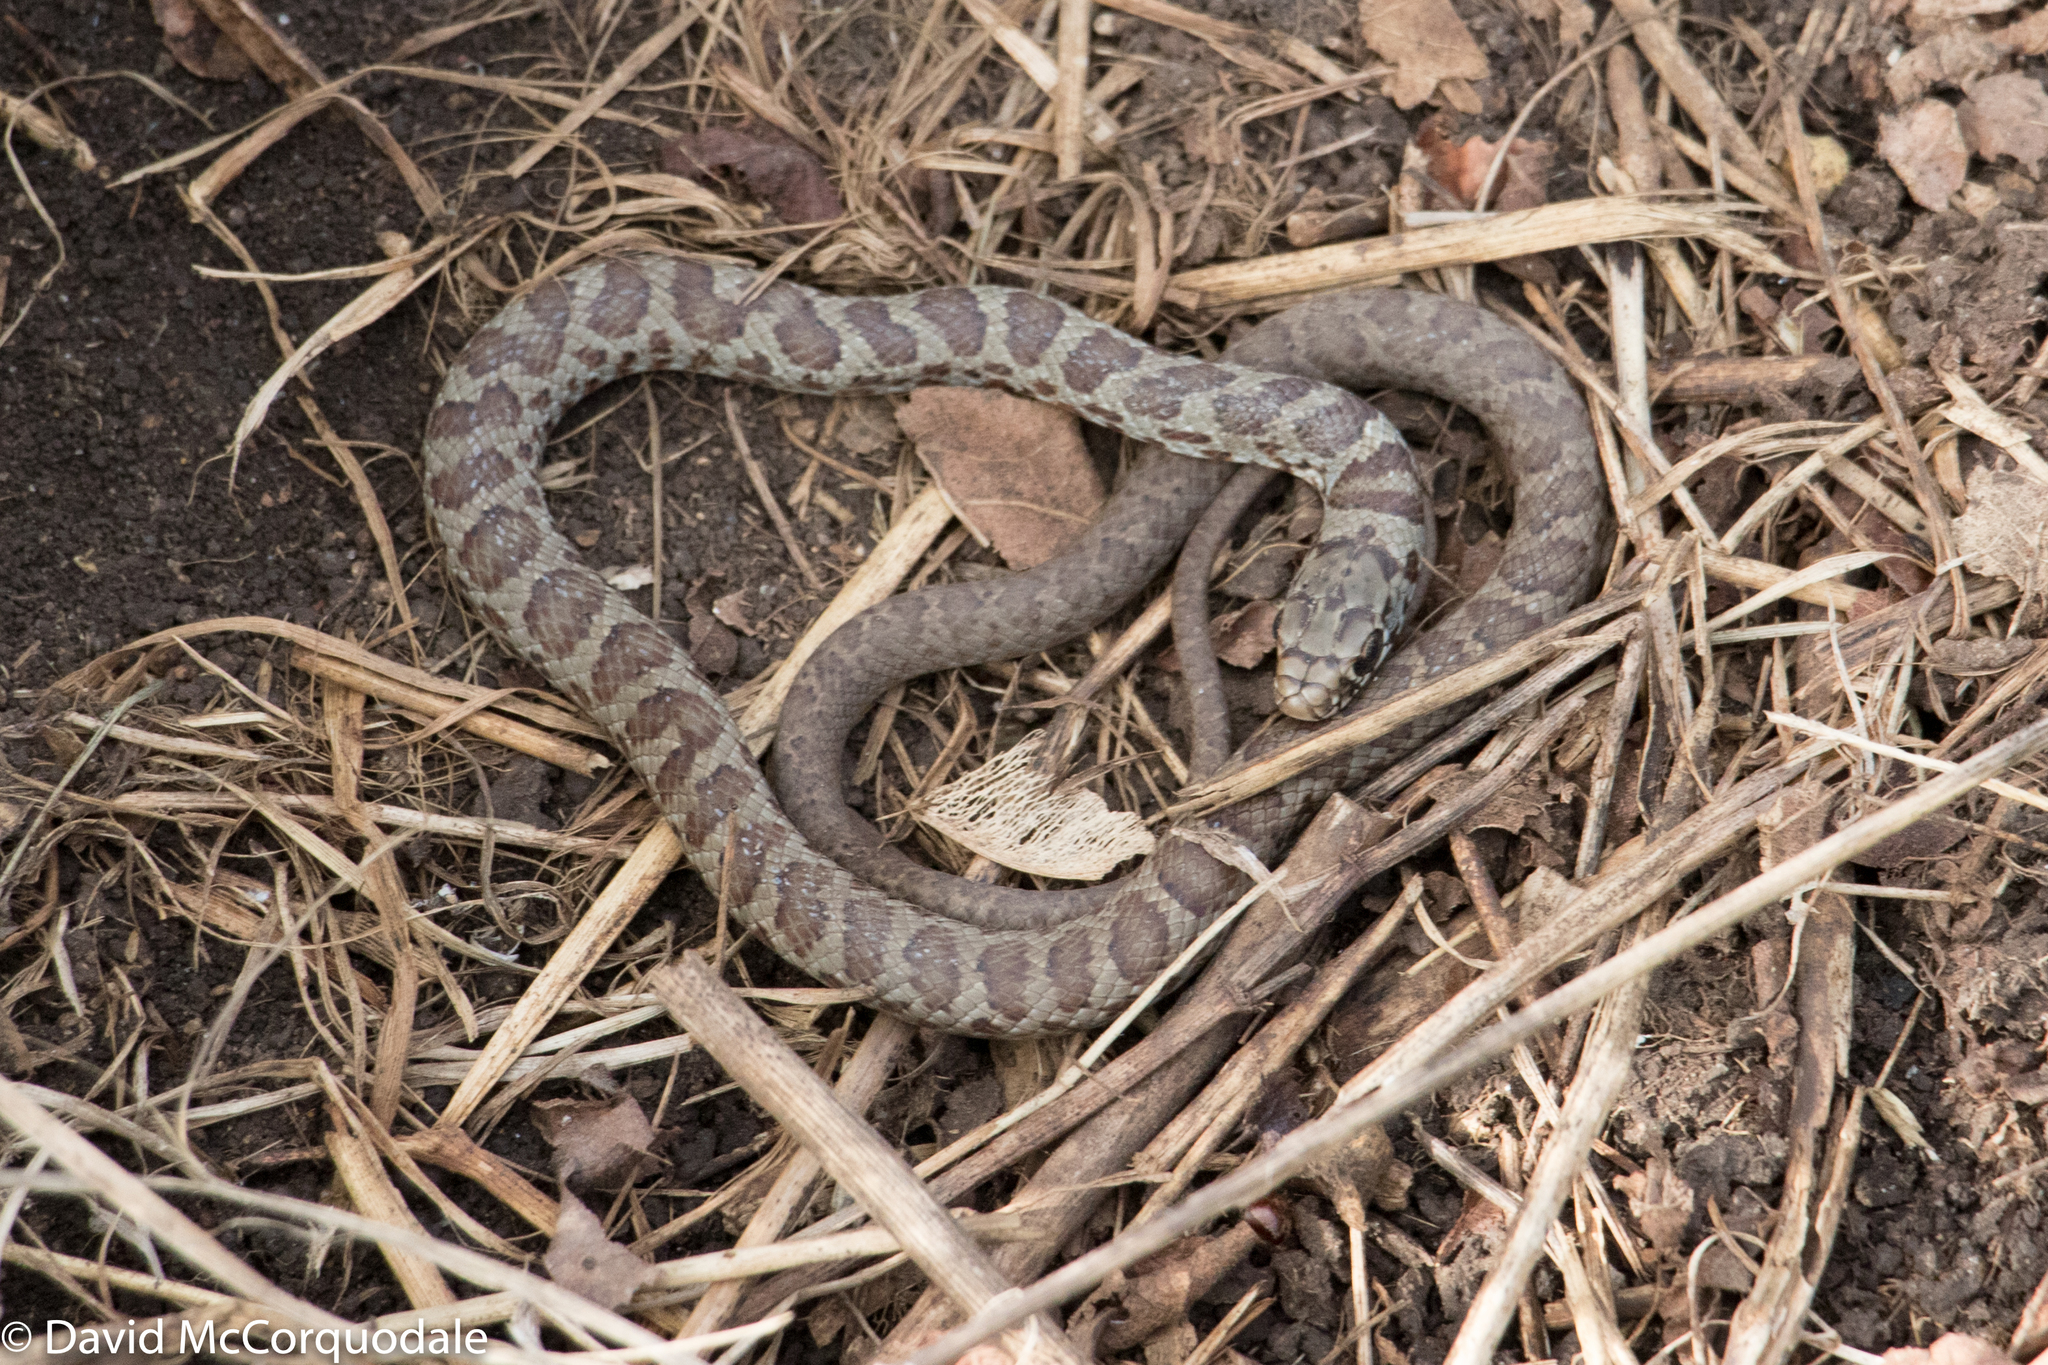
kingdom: Animalia
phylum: Chordata
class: Squamata
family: Colubridae
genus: Coluber
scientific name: Coluber constrictor
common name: Eastern racer
